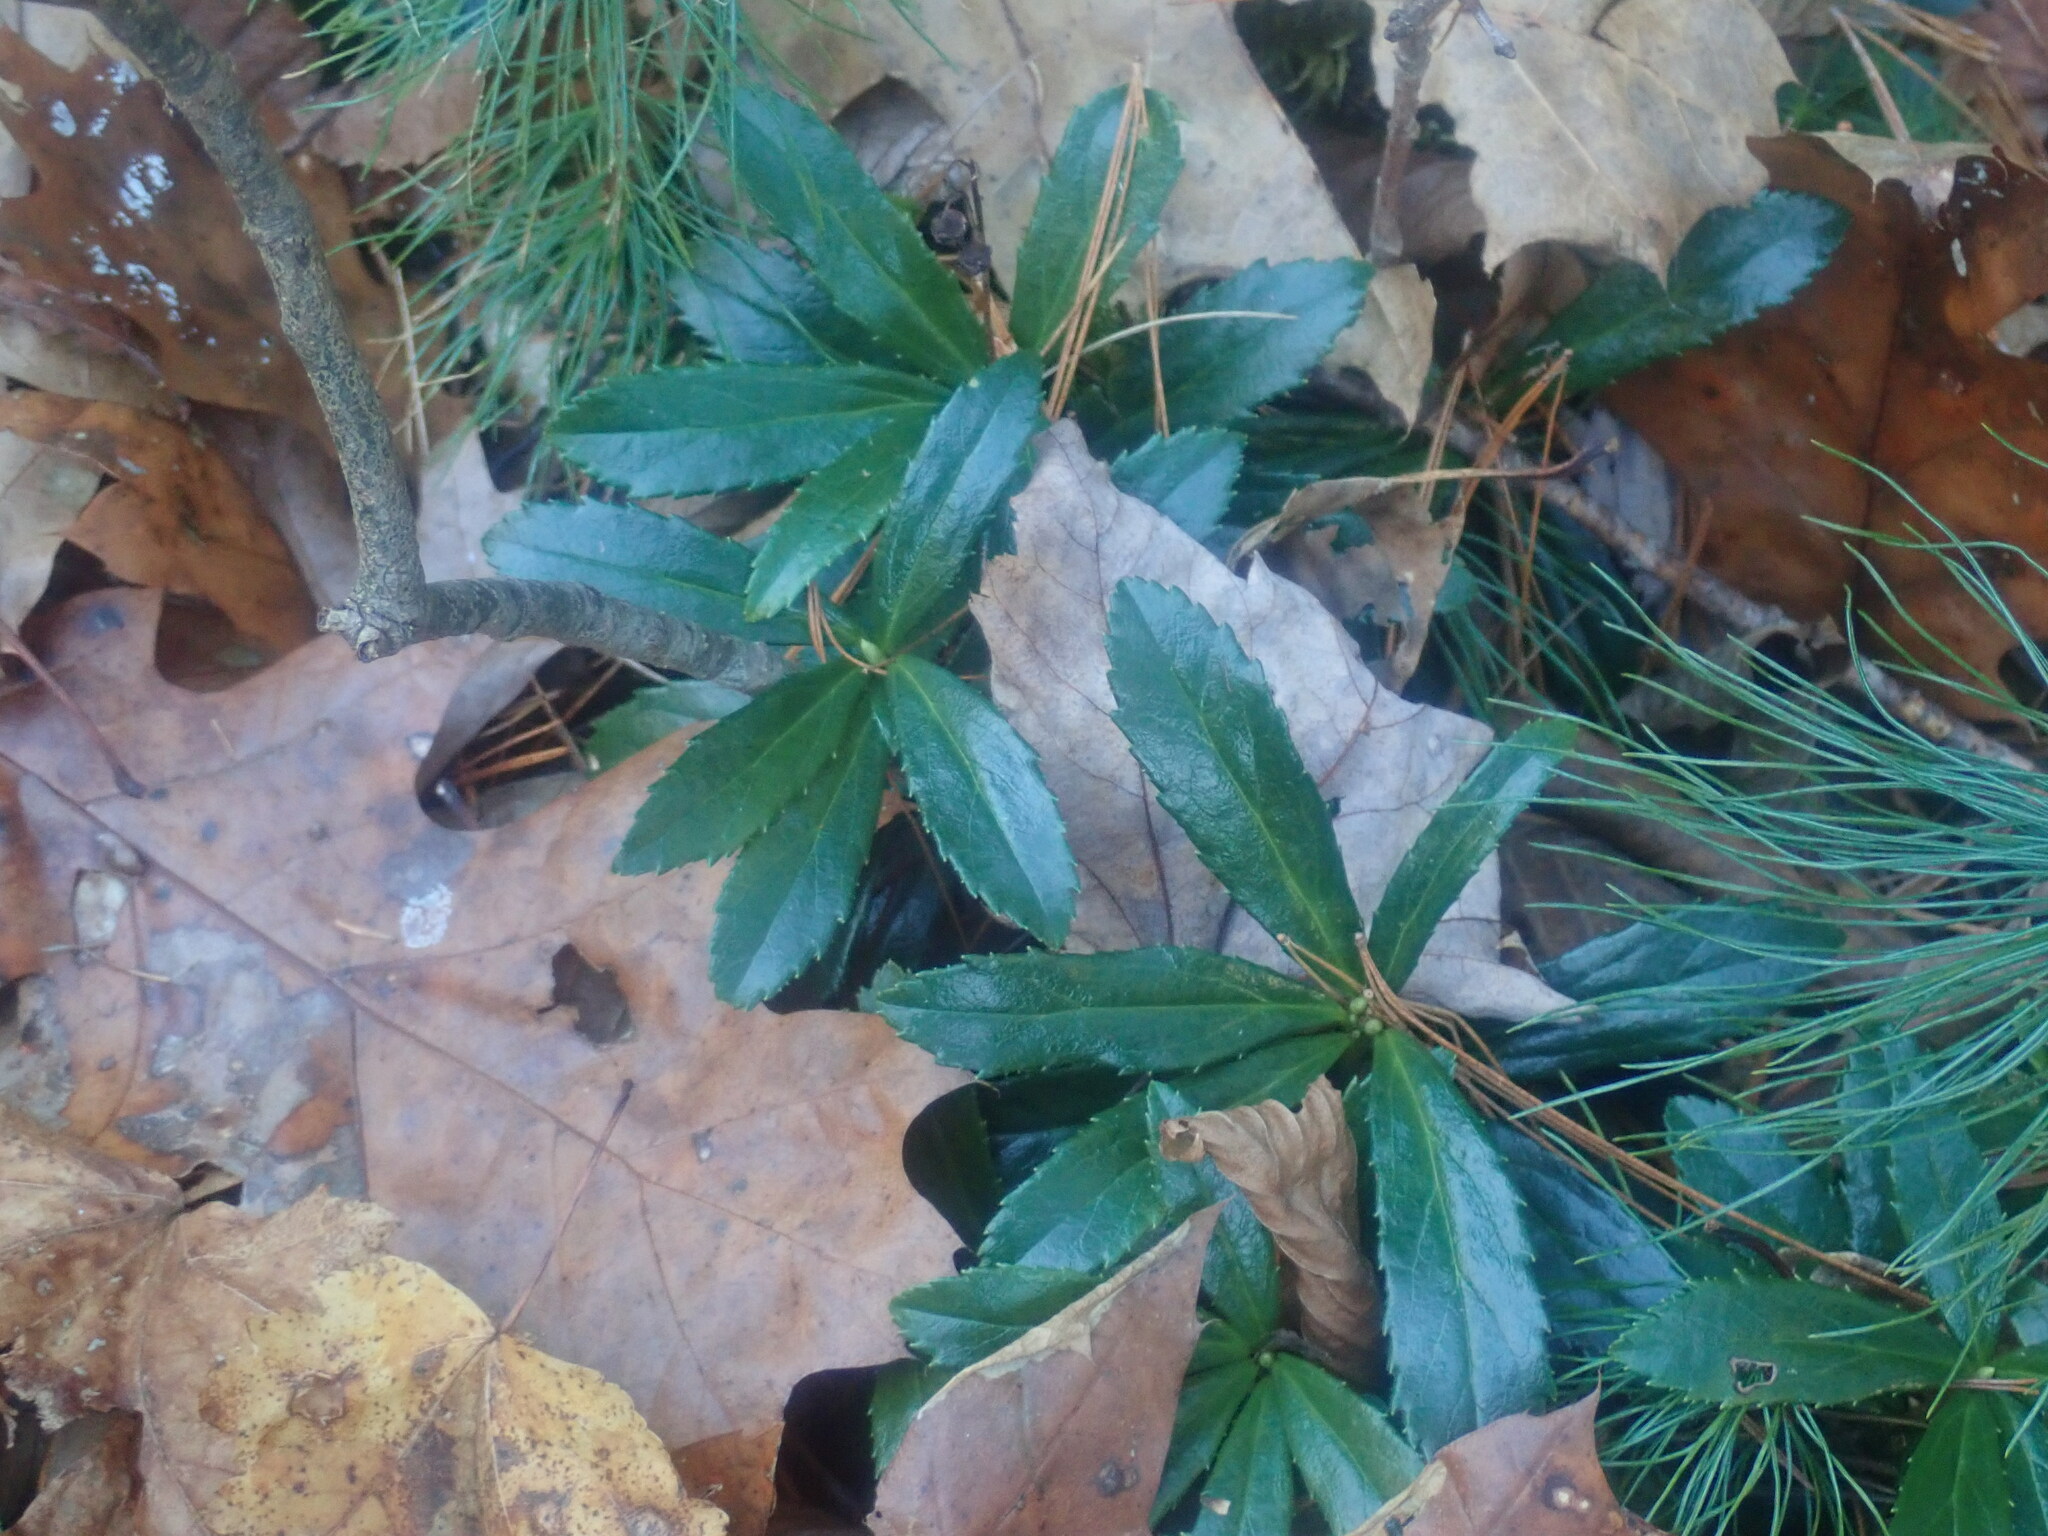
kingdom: Plantae
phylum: Tracheophyta
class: Magnoliopsida
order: Ericales
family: Ericaceae
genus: Chimaphila
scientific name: Chimaphila umbellata
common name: Pipsissewa
